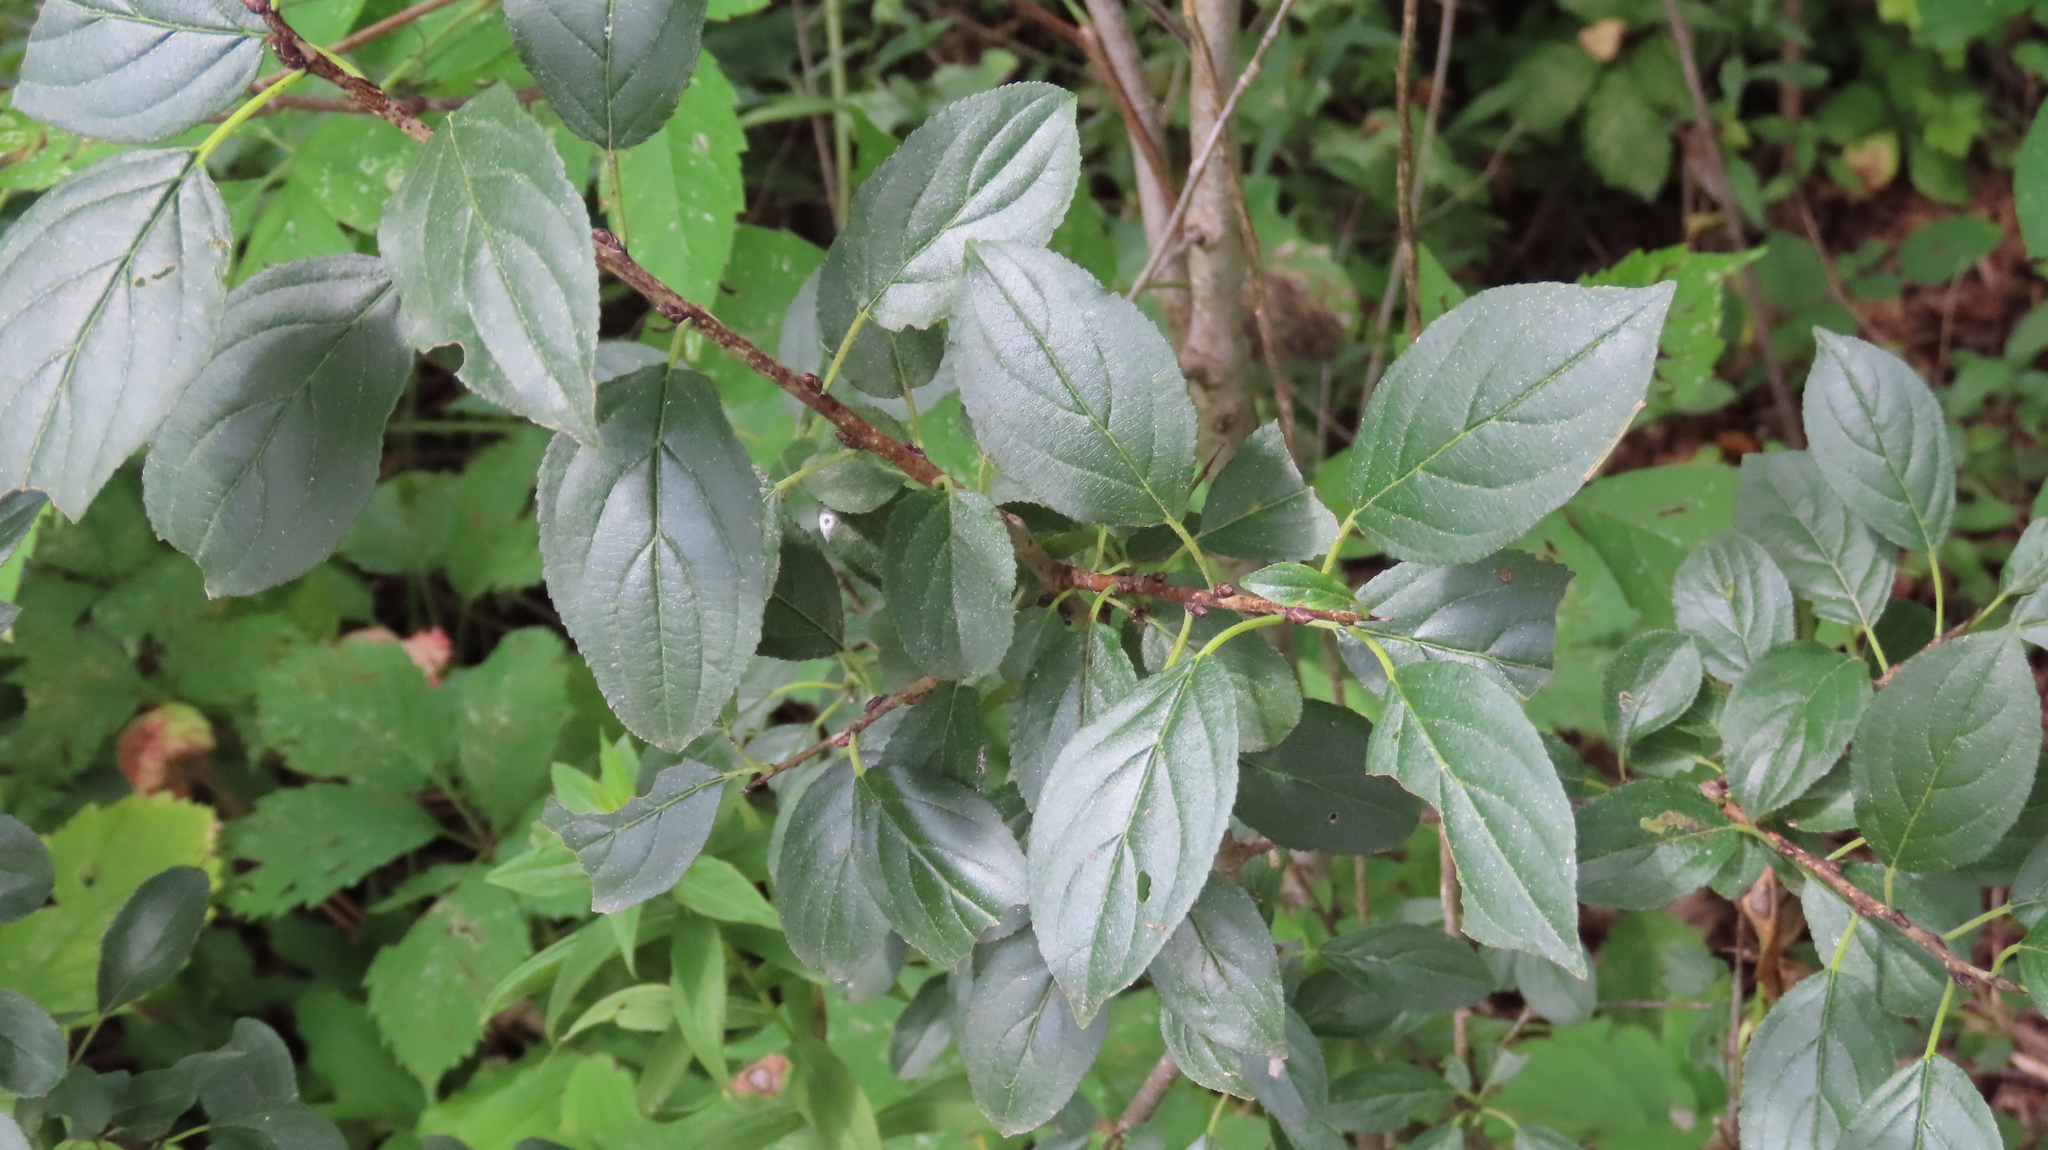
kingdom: Plantae
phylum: Tracheophyta
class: Magnoliopsida
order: Rosales
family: Rhamnaceae
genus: Rhamnus
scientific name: Rhamnus cathartica
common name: Common buckthorn
